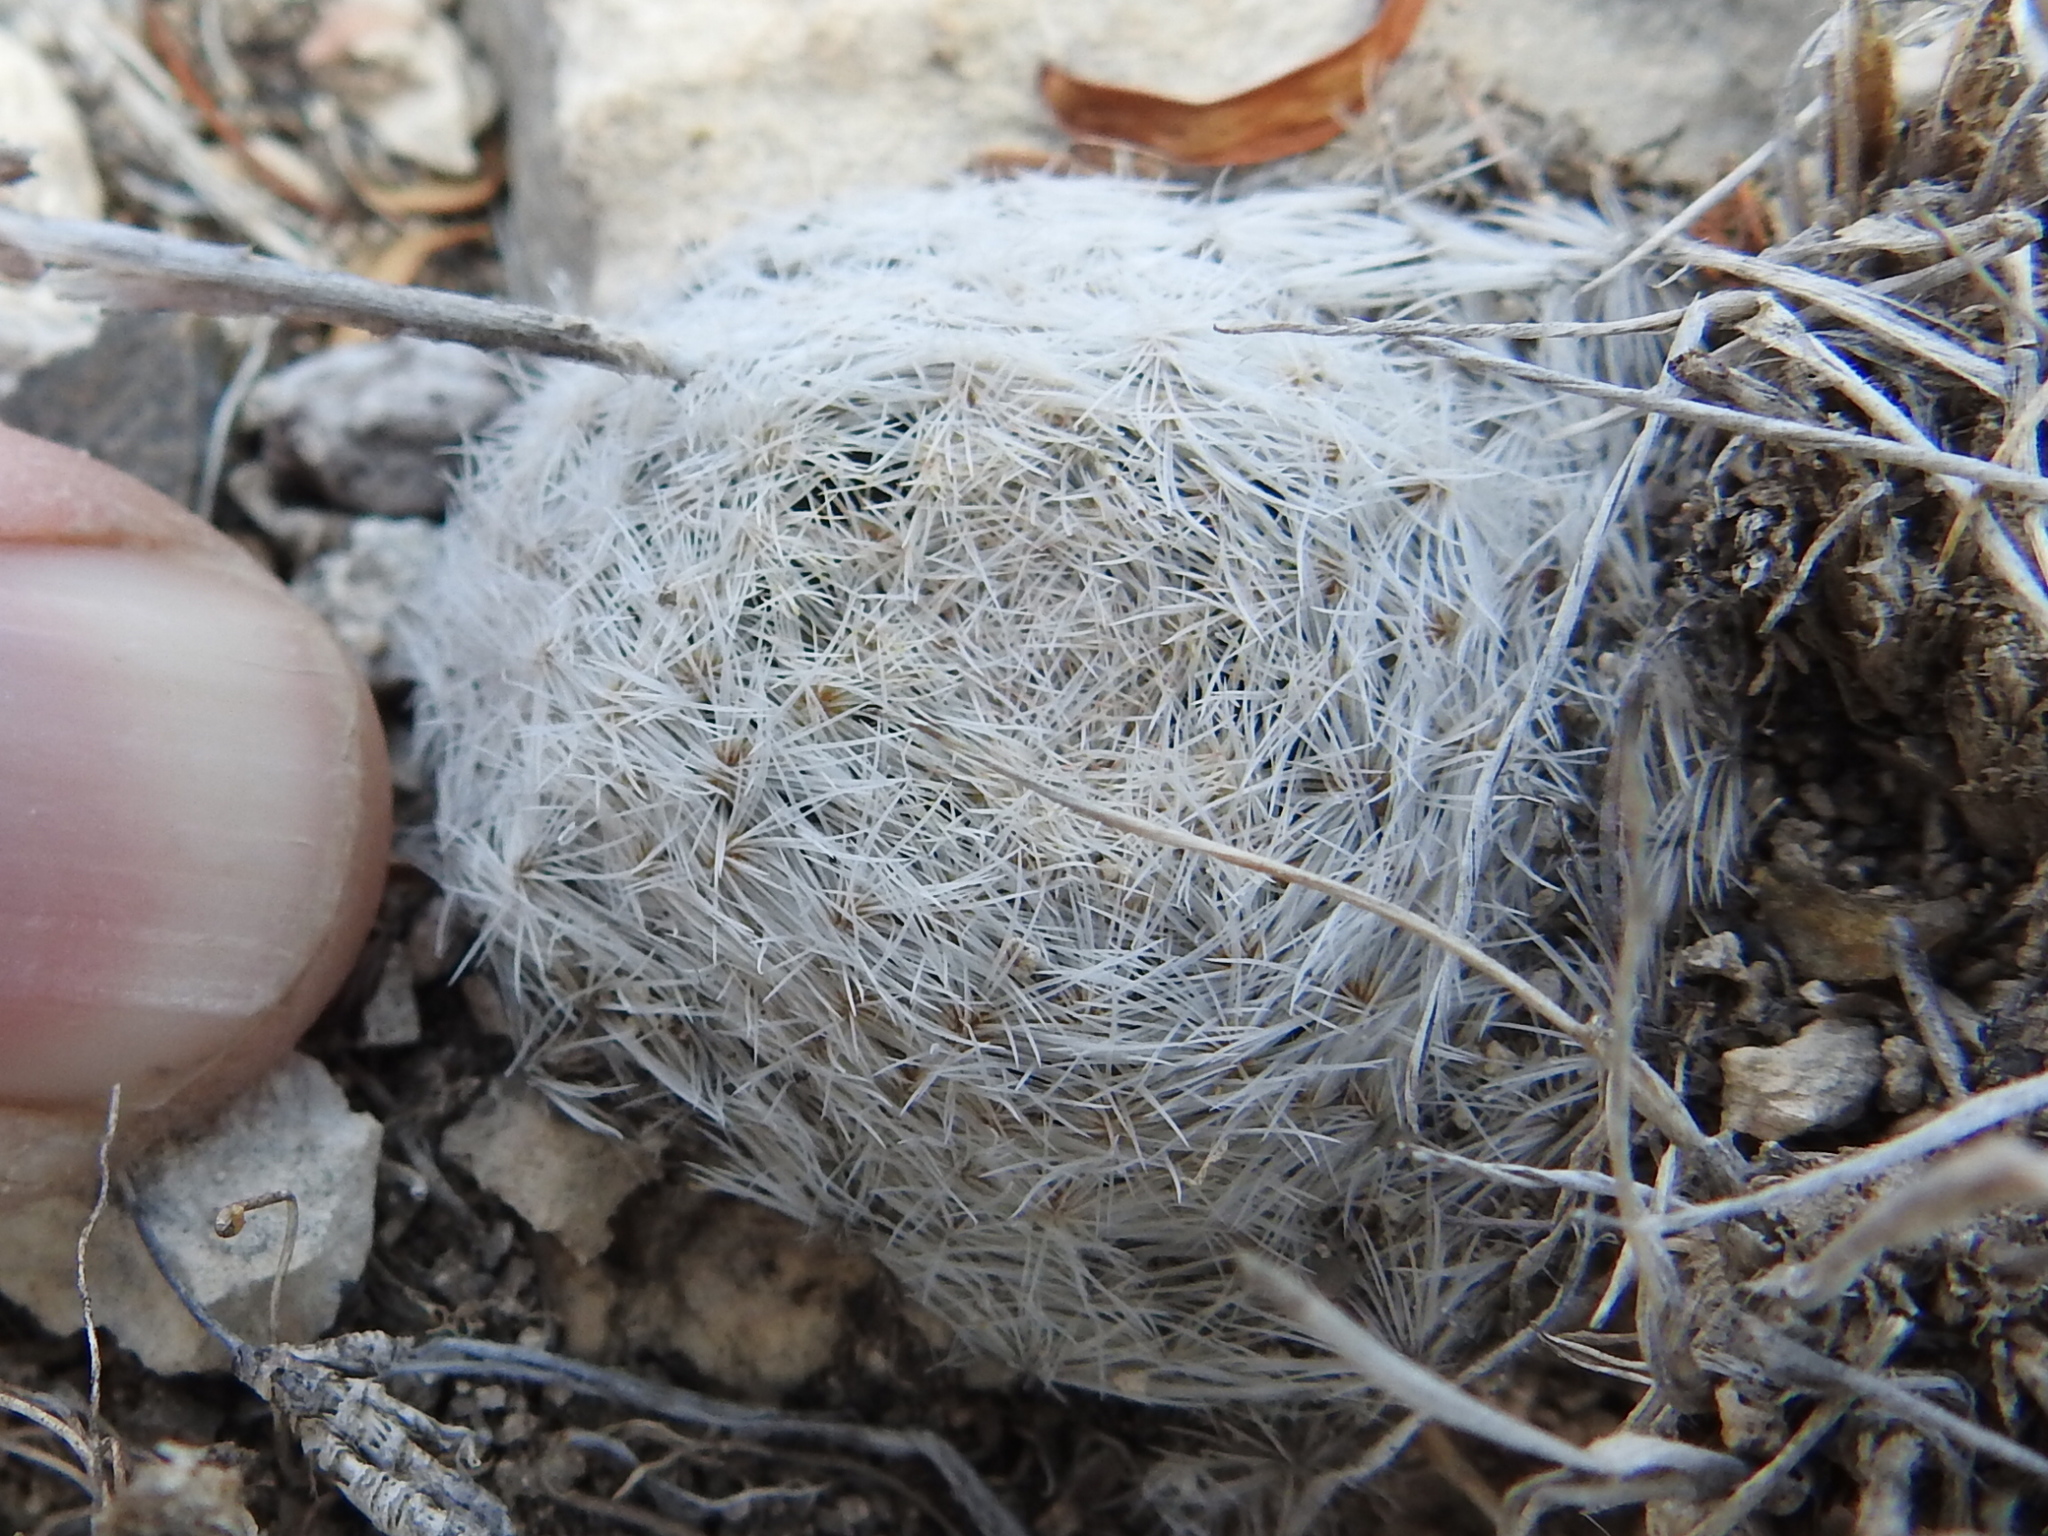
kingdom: Plantae
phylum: Tracheophyta
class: Magnoliopsida
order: Caryophyllales
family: Cactaceae
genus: Mammillaria
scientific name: Mammillaria lasiacantha
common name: Lace-spine nipple cactus
